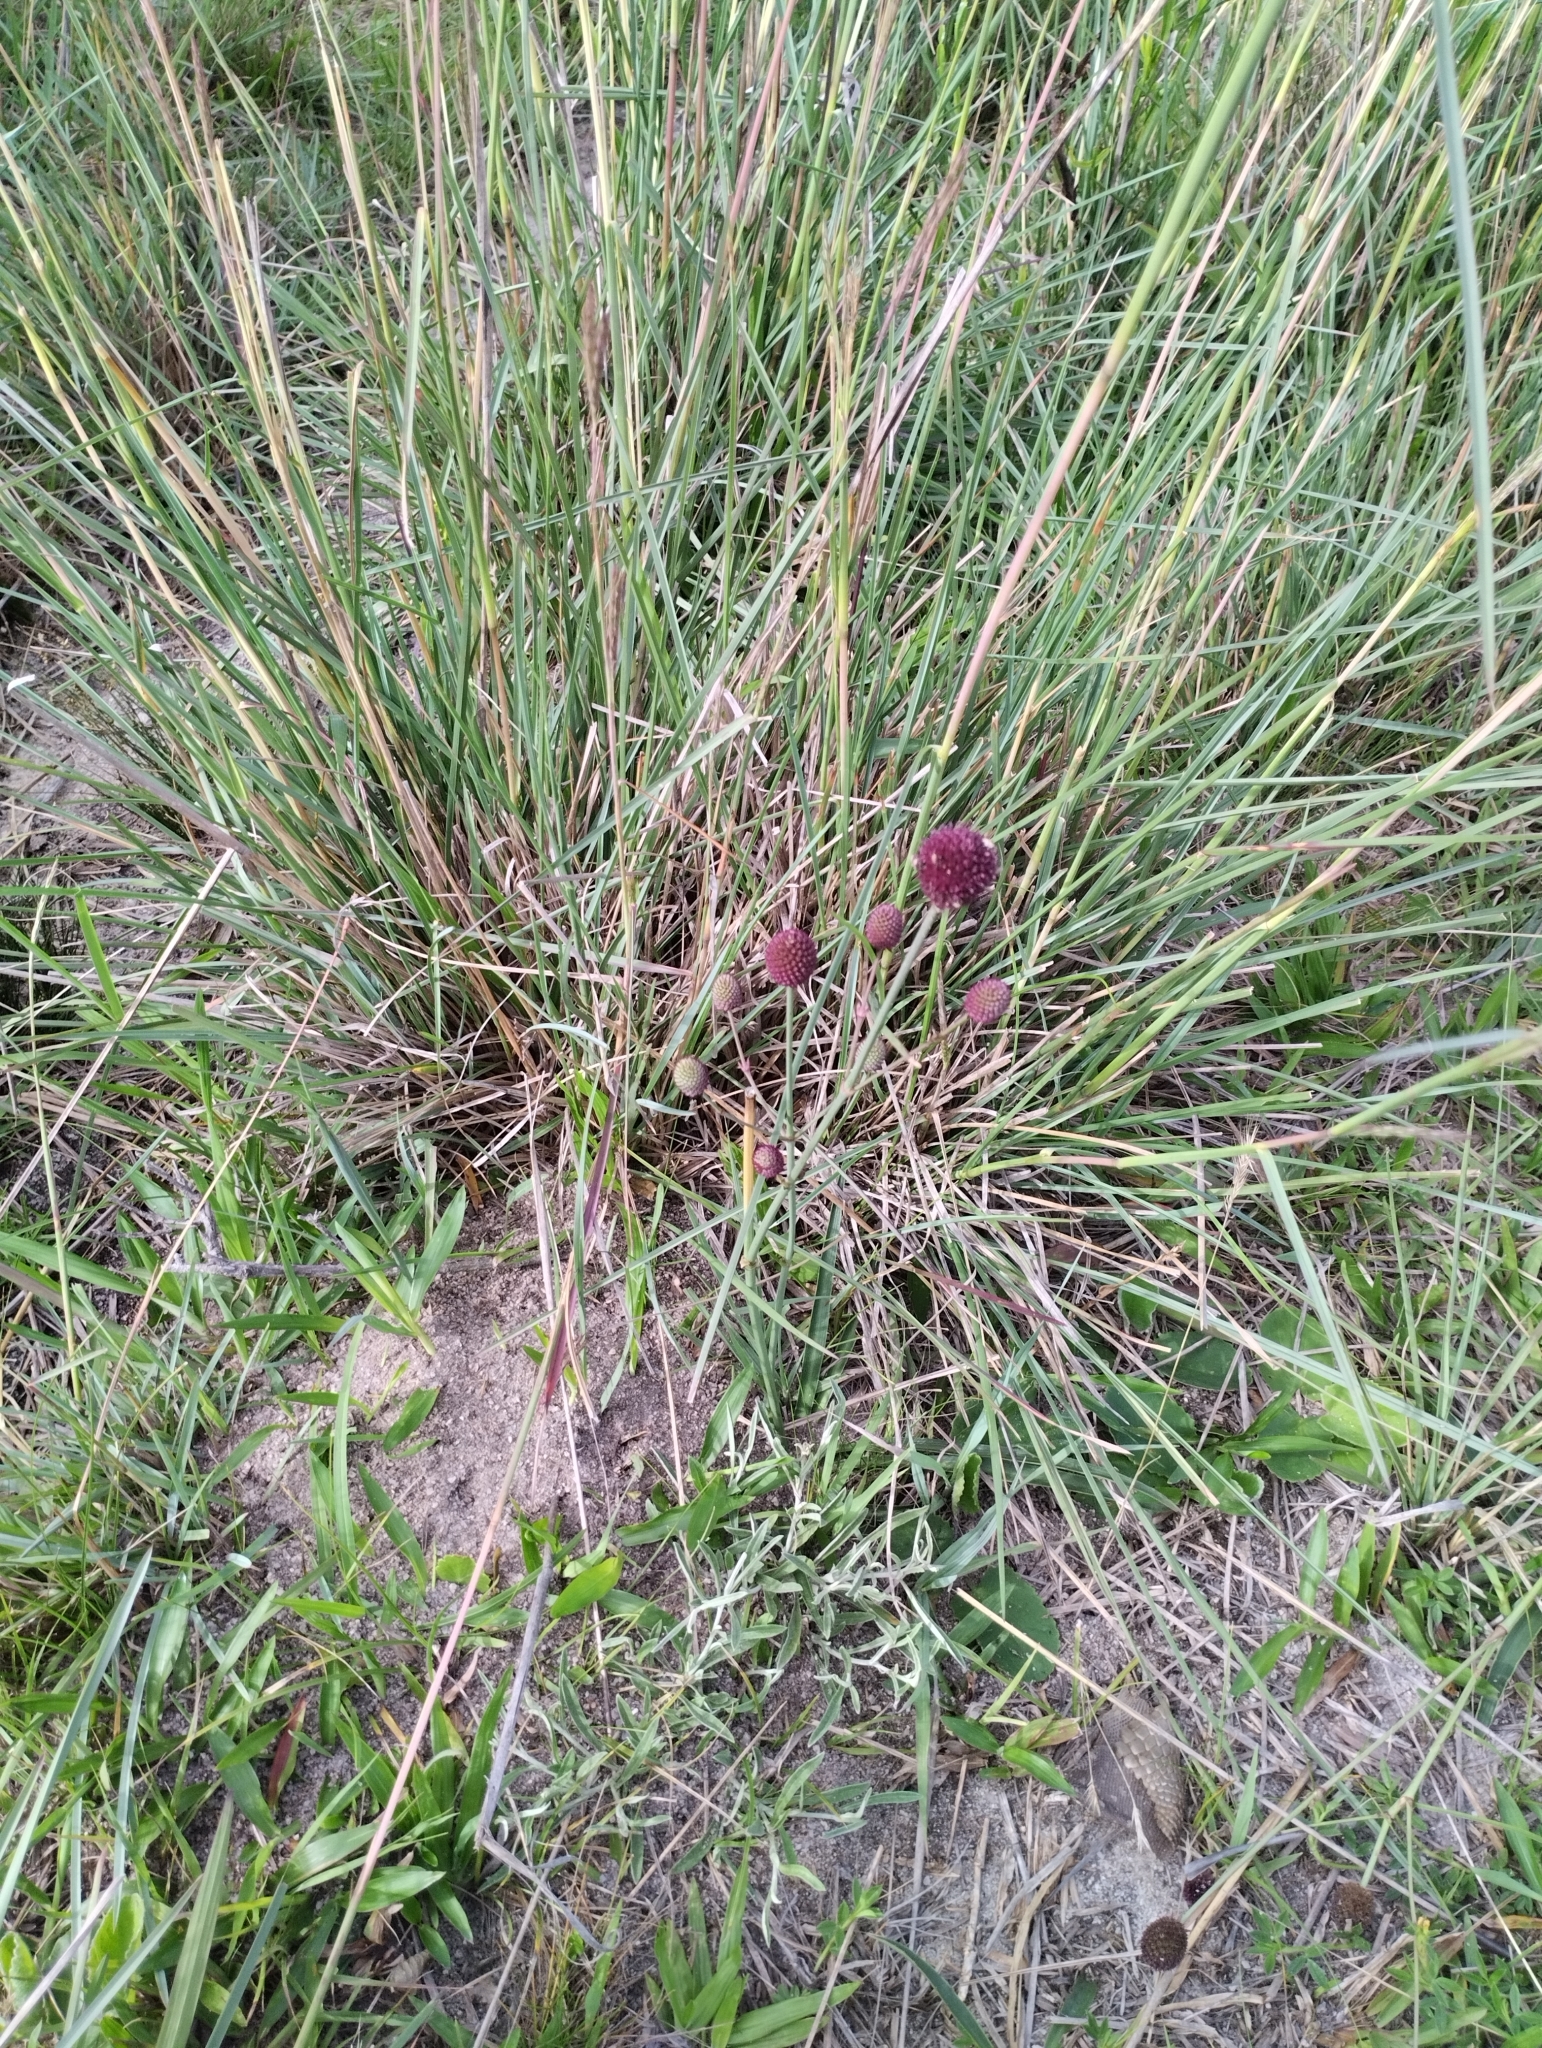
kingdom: Plantae
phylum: Tracheophyta
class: Magnoliopsida
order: Apiales
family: Apiaceae
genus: Eryngium
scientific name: Eryngium sanguisorba
